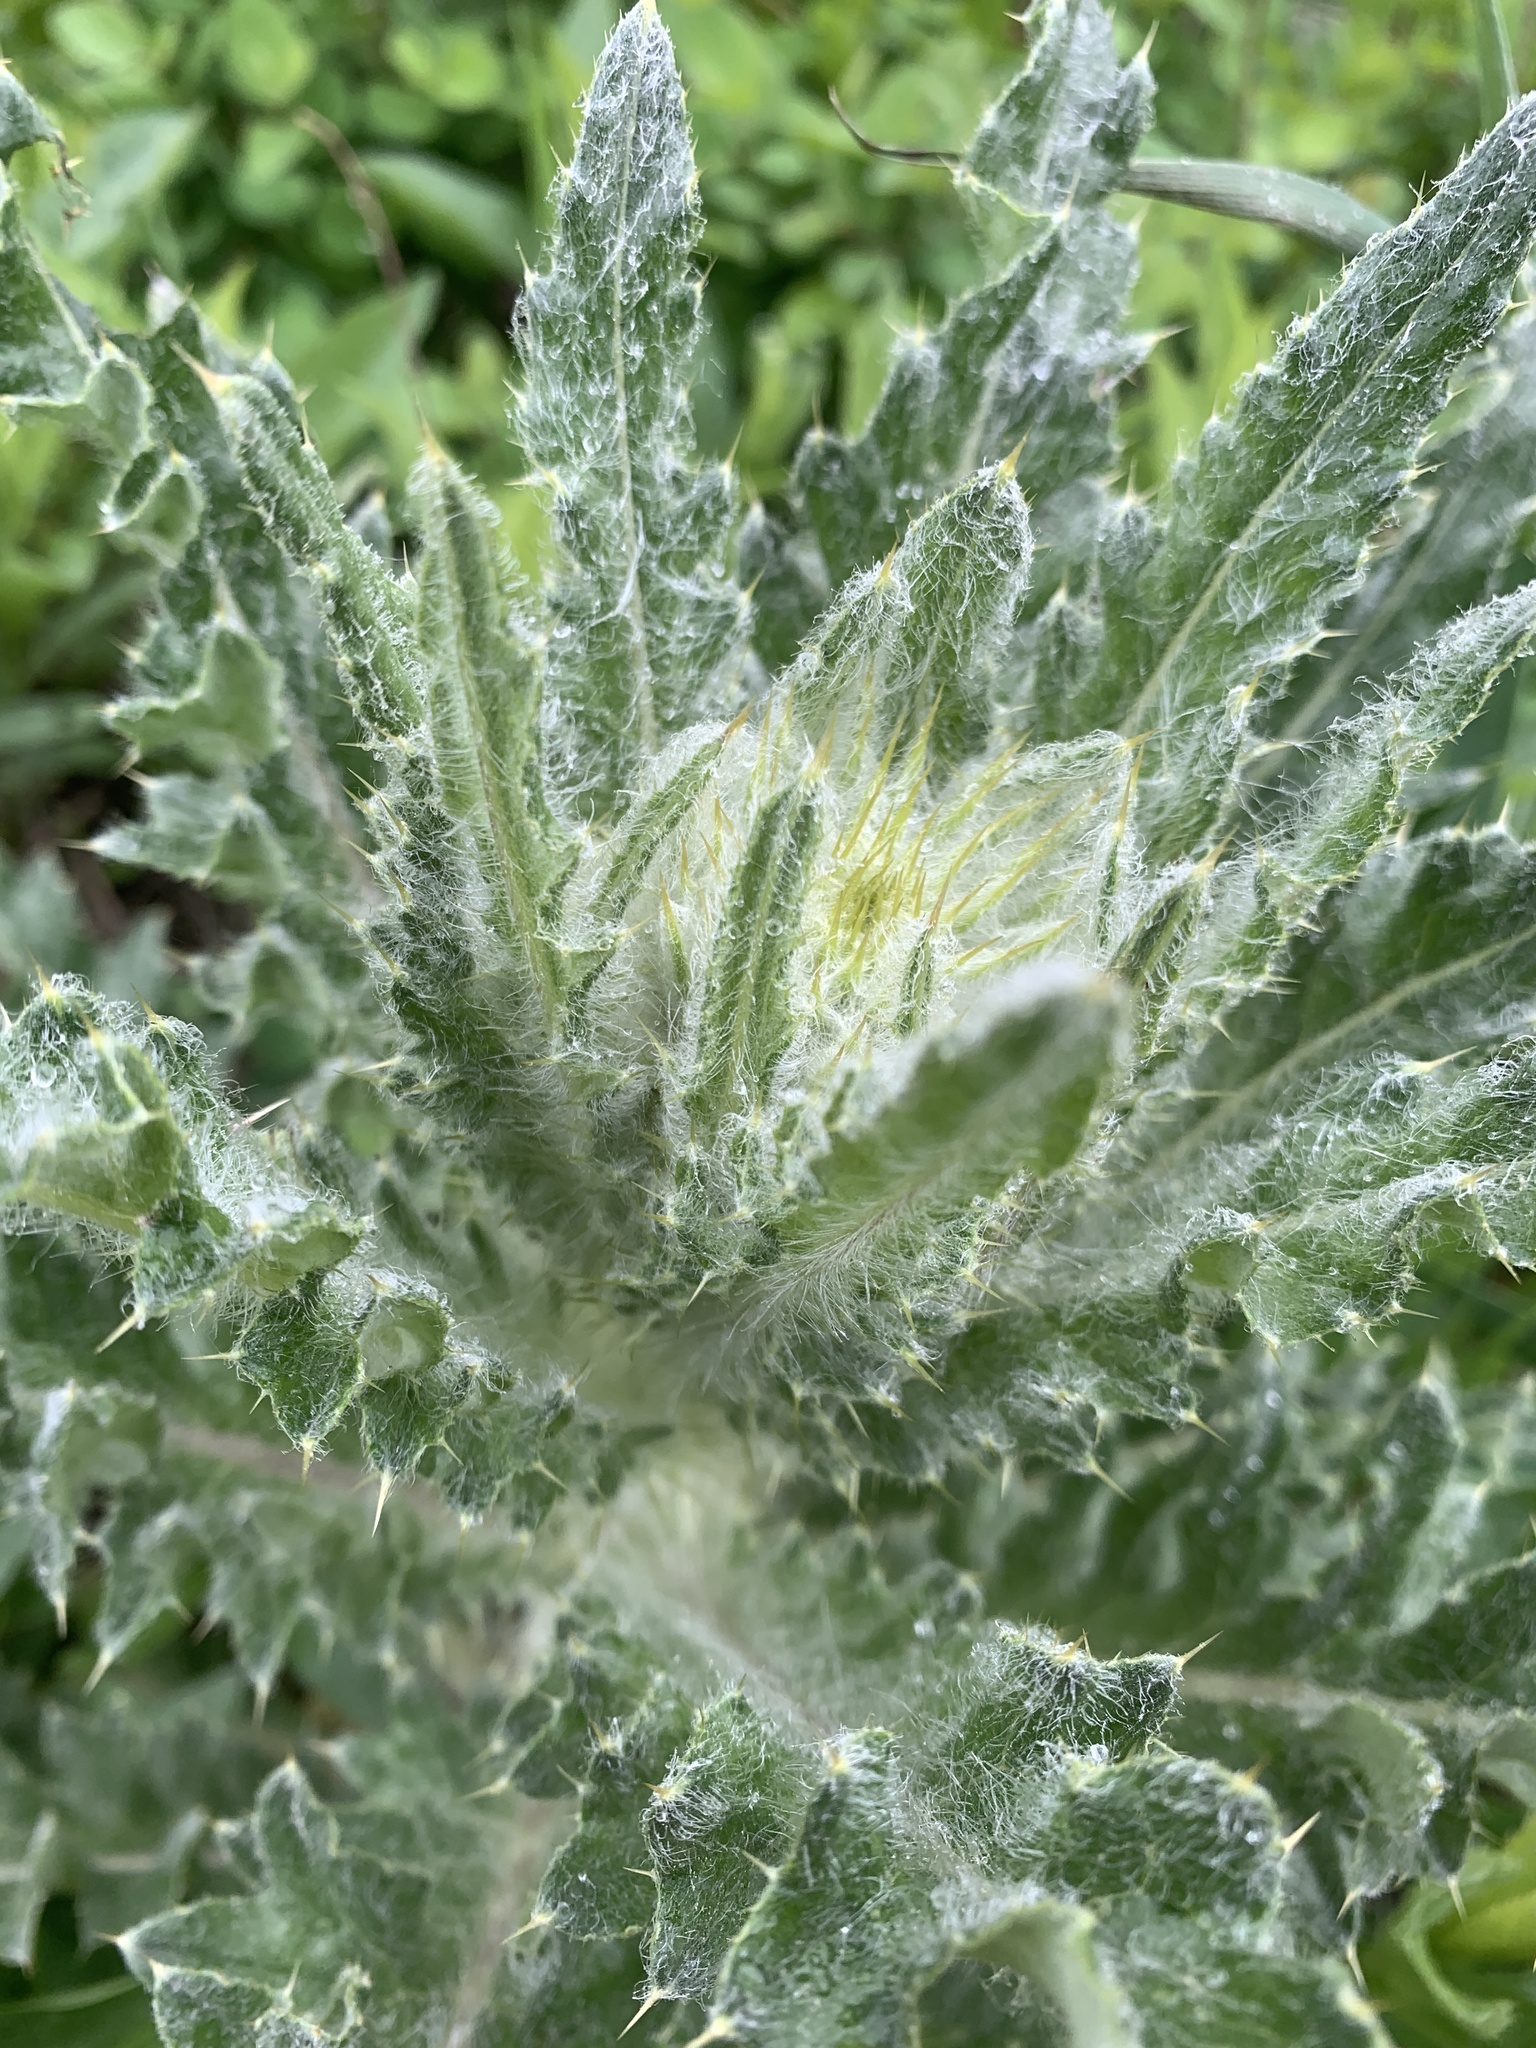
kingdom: Plantae
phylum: Tracheophyta
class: Magnoliopsida
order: Asterales
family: Asteraceae
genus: Cirsium
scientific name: Cirsium scariosum
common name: Meadow thistle
